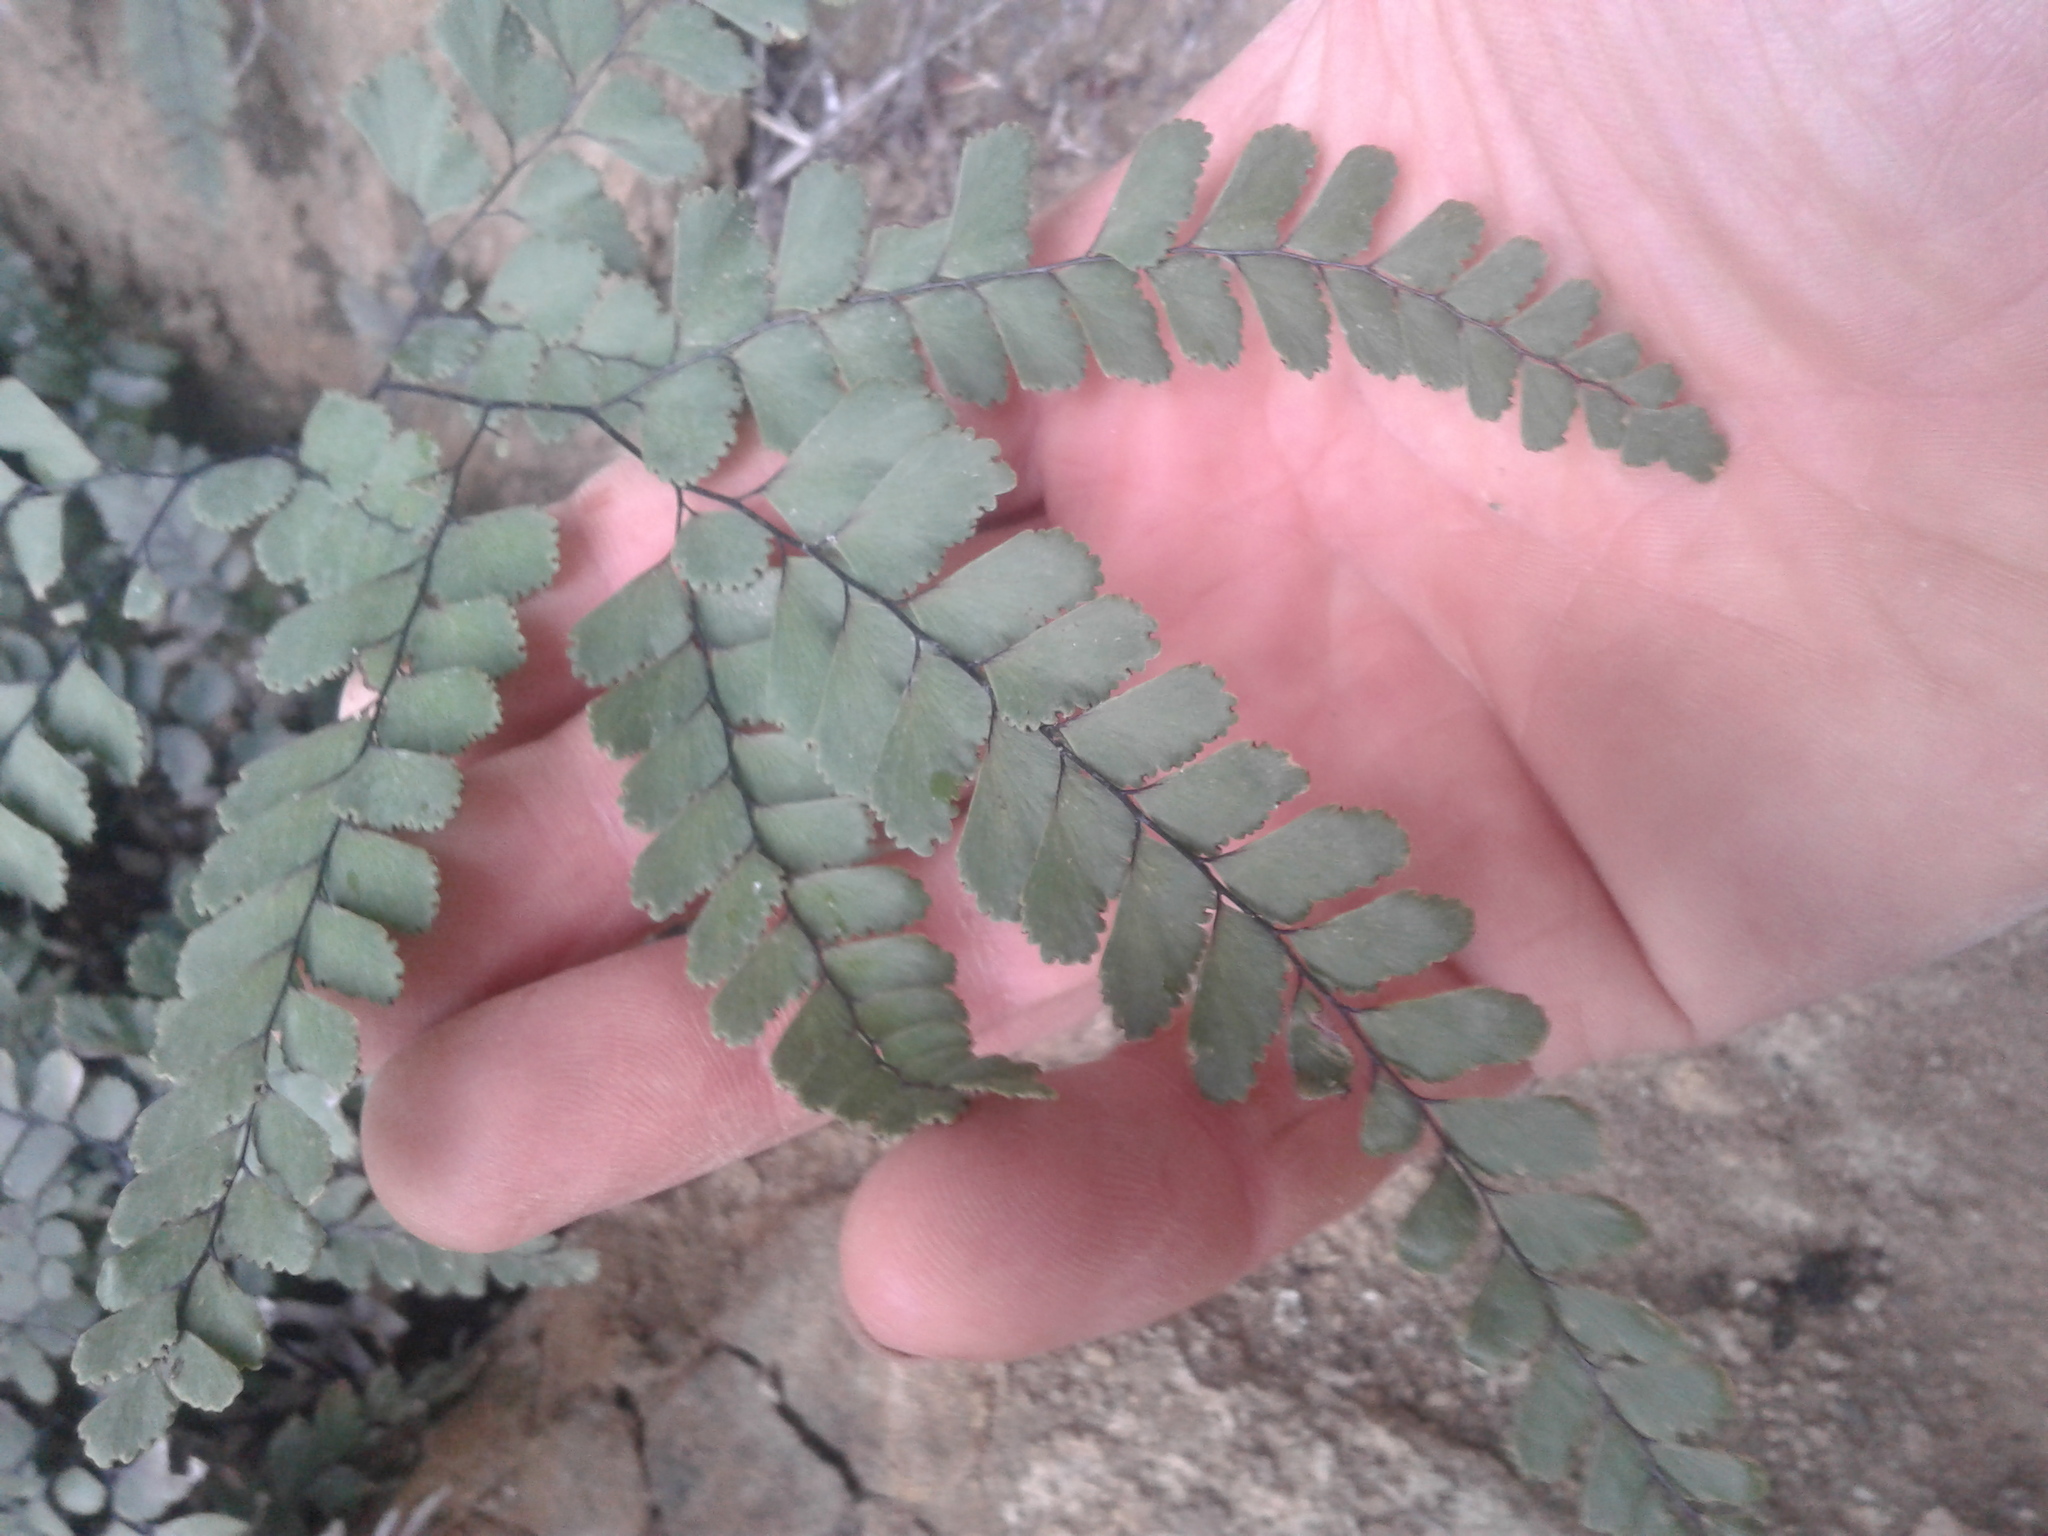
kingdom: Plantae
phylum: Tracheophyta
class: Polypodiopsida
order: Polypodiales
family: Pteridaceae
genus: Adiantum
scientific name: Adiantum cunninghamii
